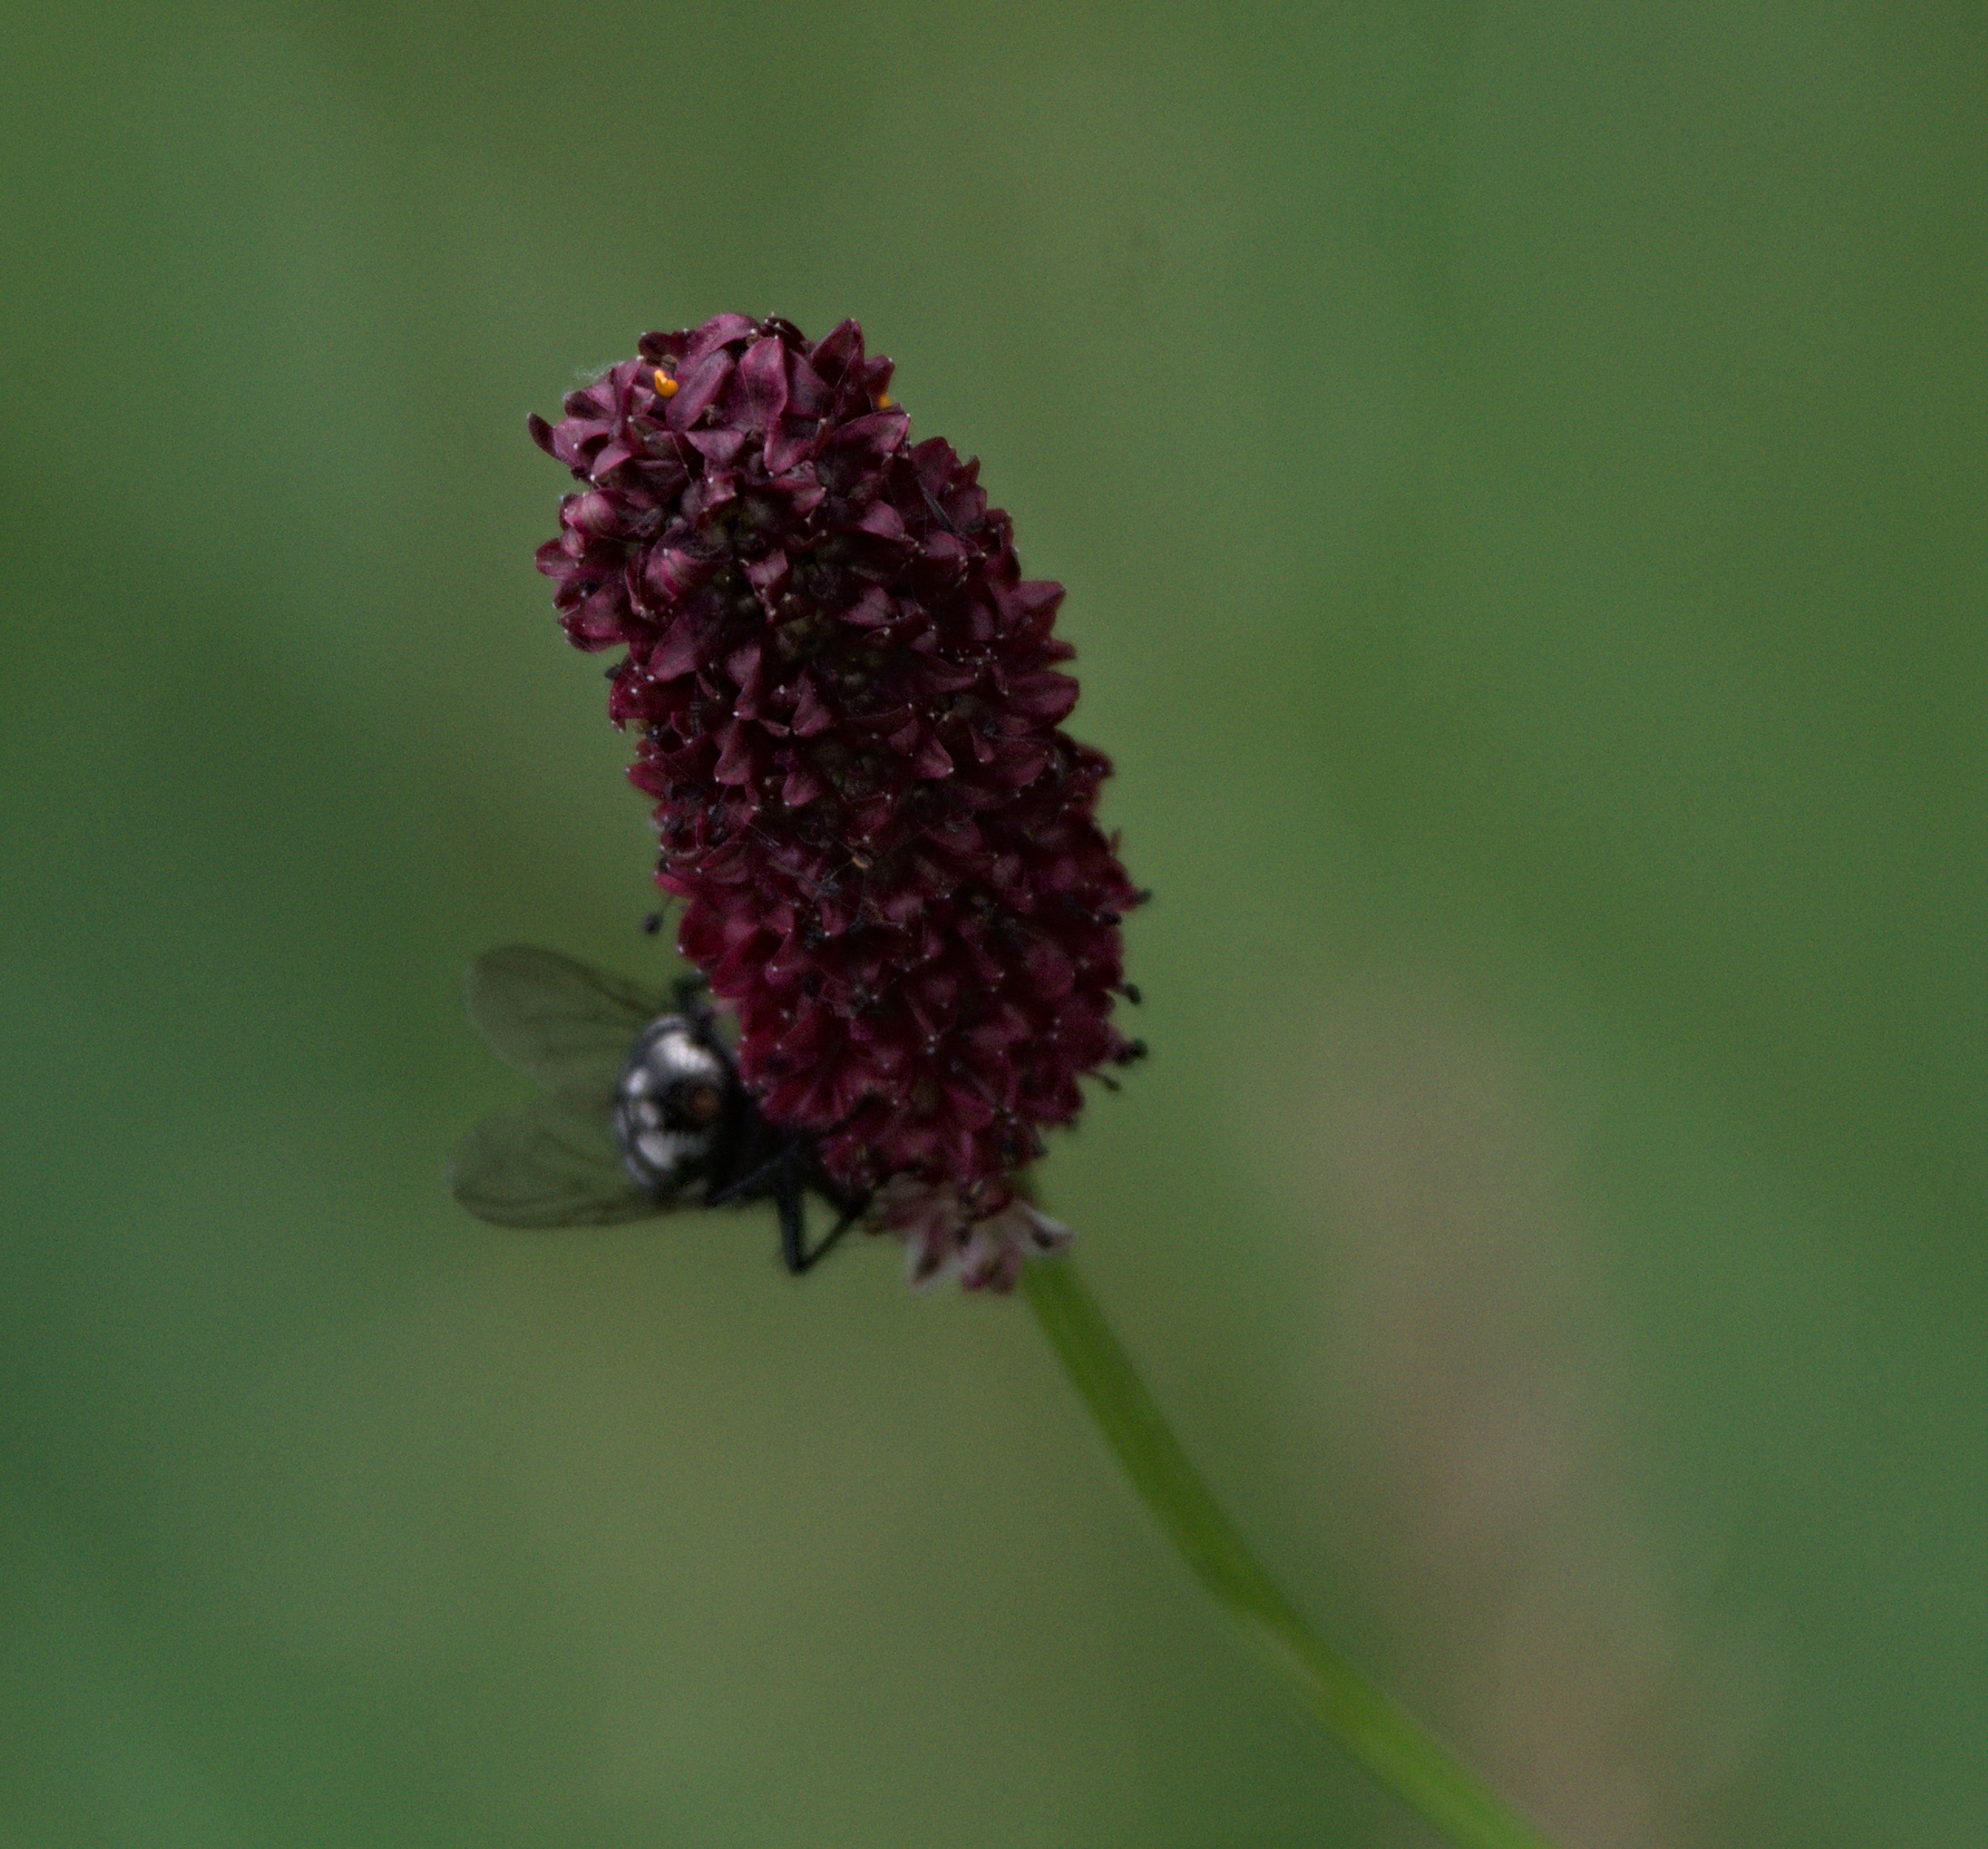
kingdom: Plantae
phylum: Tracheophyta
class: Magnoliopsida
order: Rosales
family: Rosaceae
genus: Sanguisorba
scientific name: Sanguisorba officinalis
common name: Great burnet
